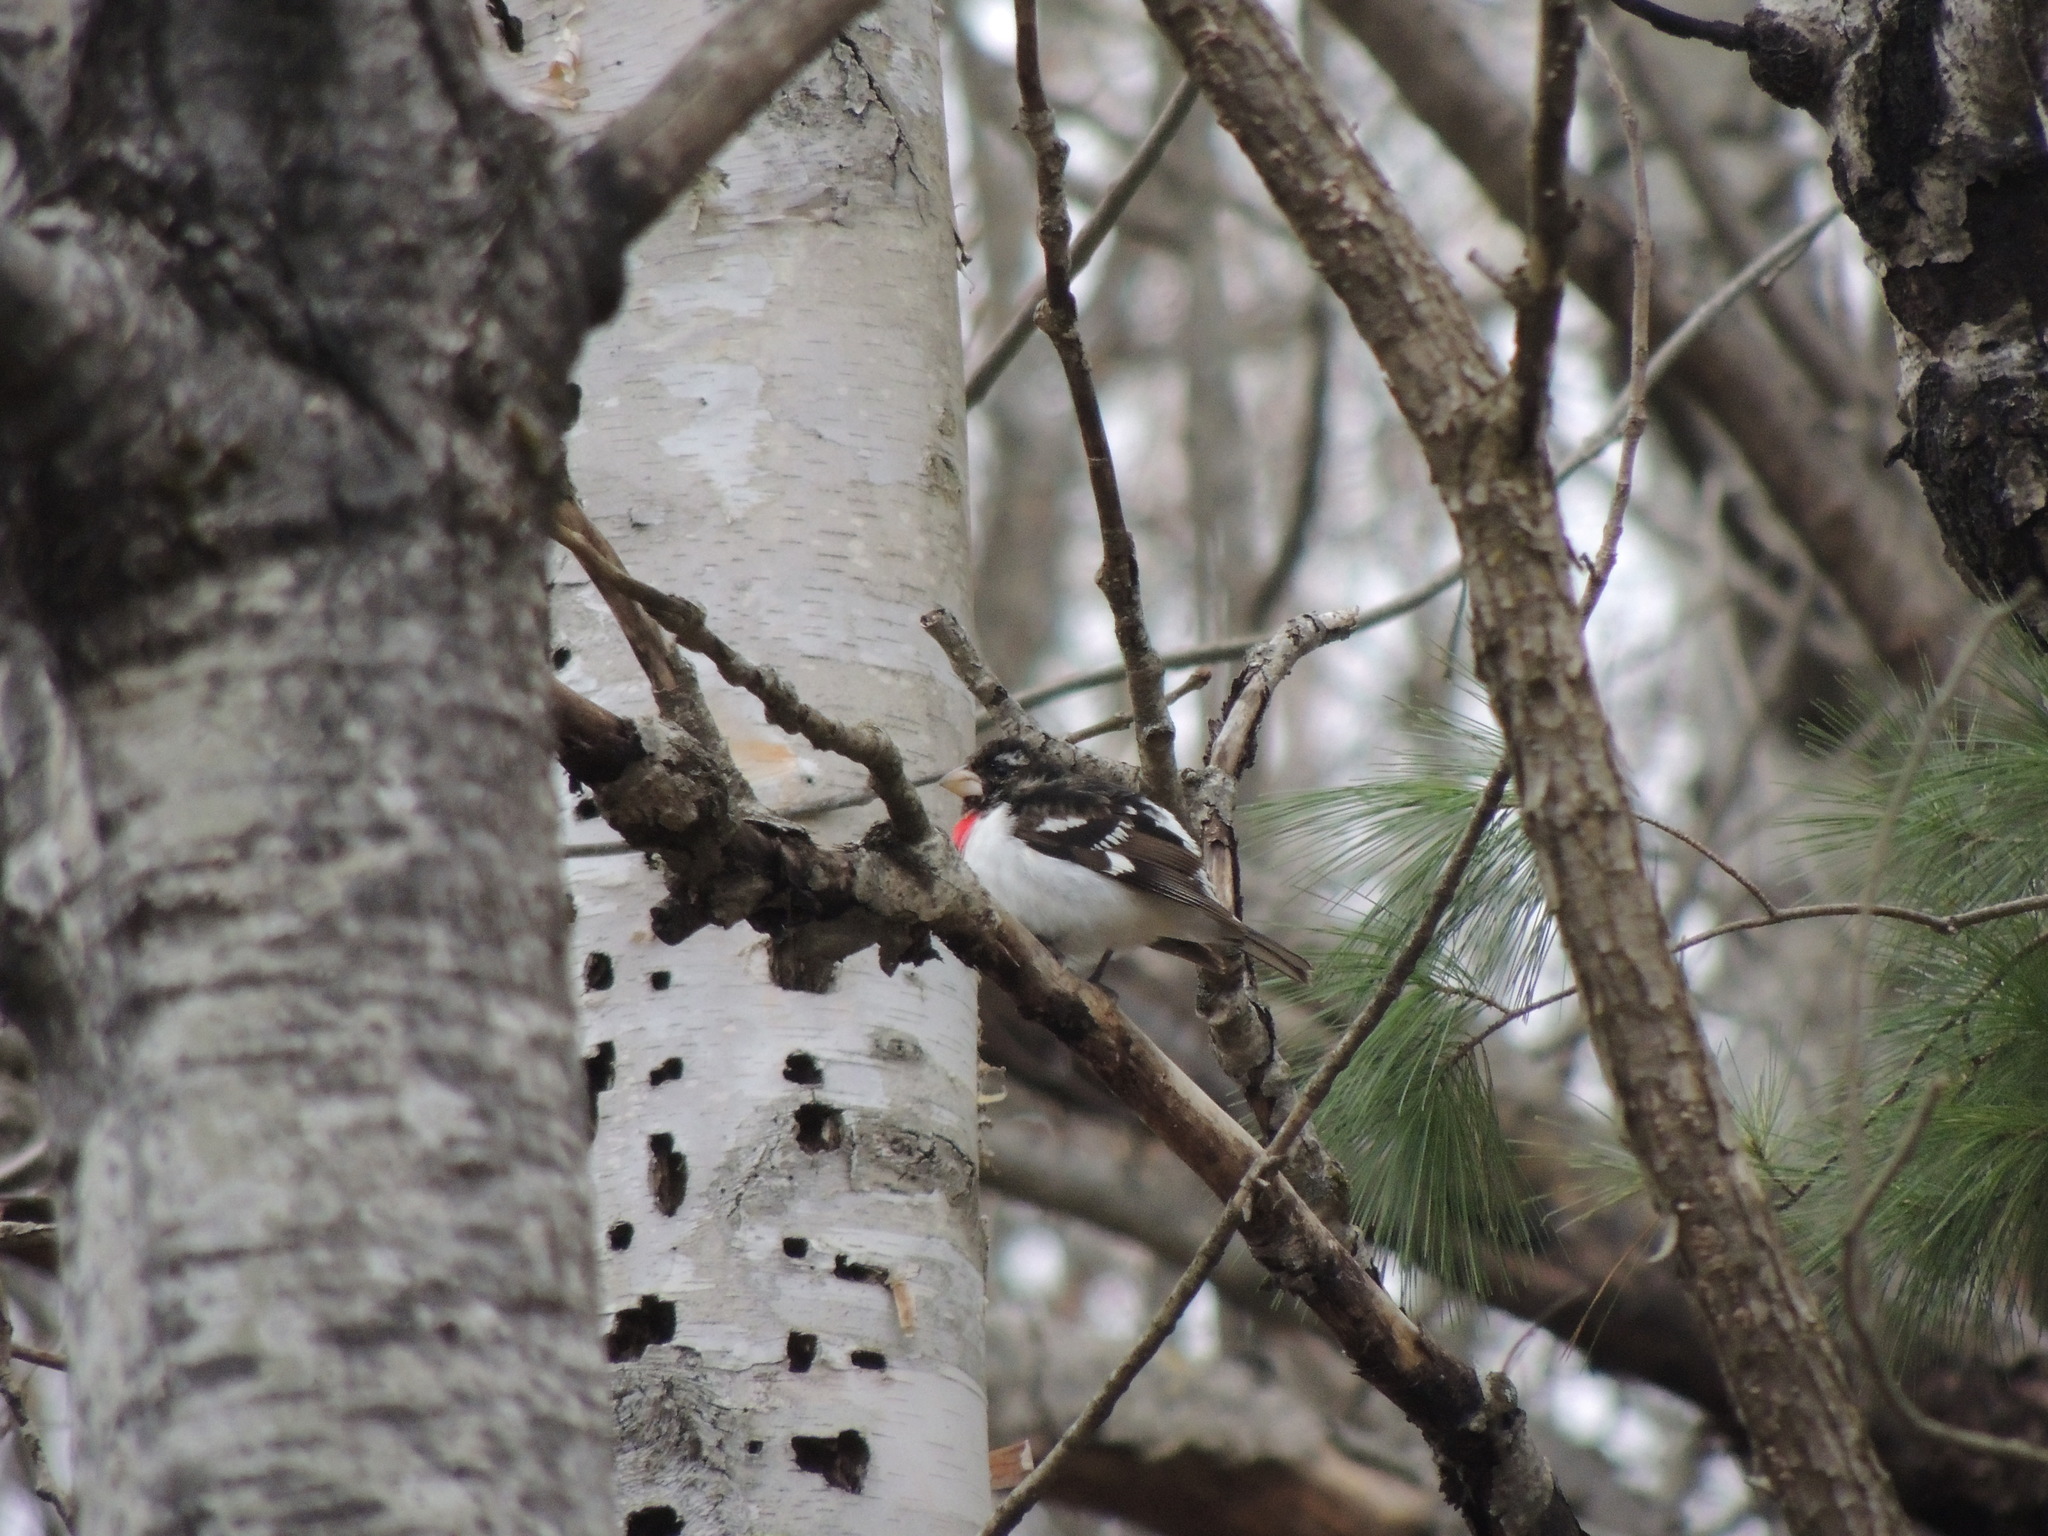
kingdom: Animalia
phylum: Chordata
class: Aves
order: Passeriformes
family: Cardinalidae
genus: Pheucticus
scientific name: Pheucticus ludovicianus
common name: Rose-breasted grosbeak
